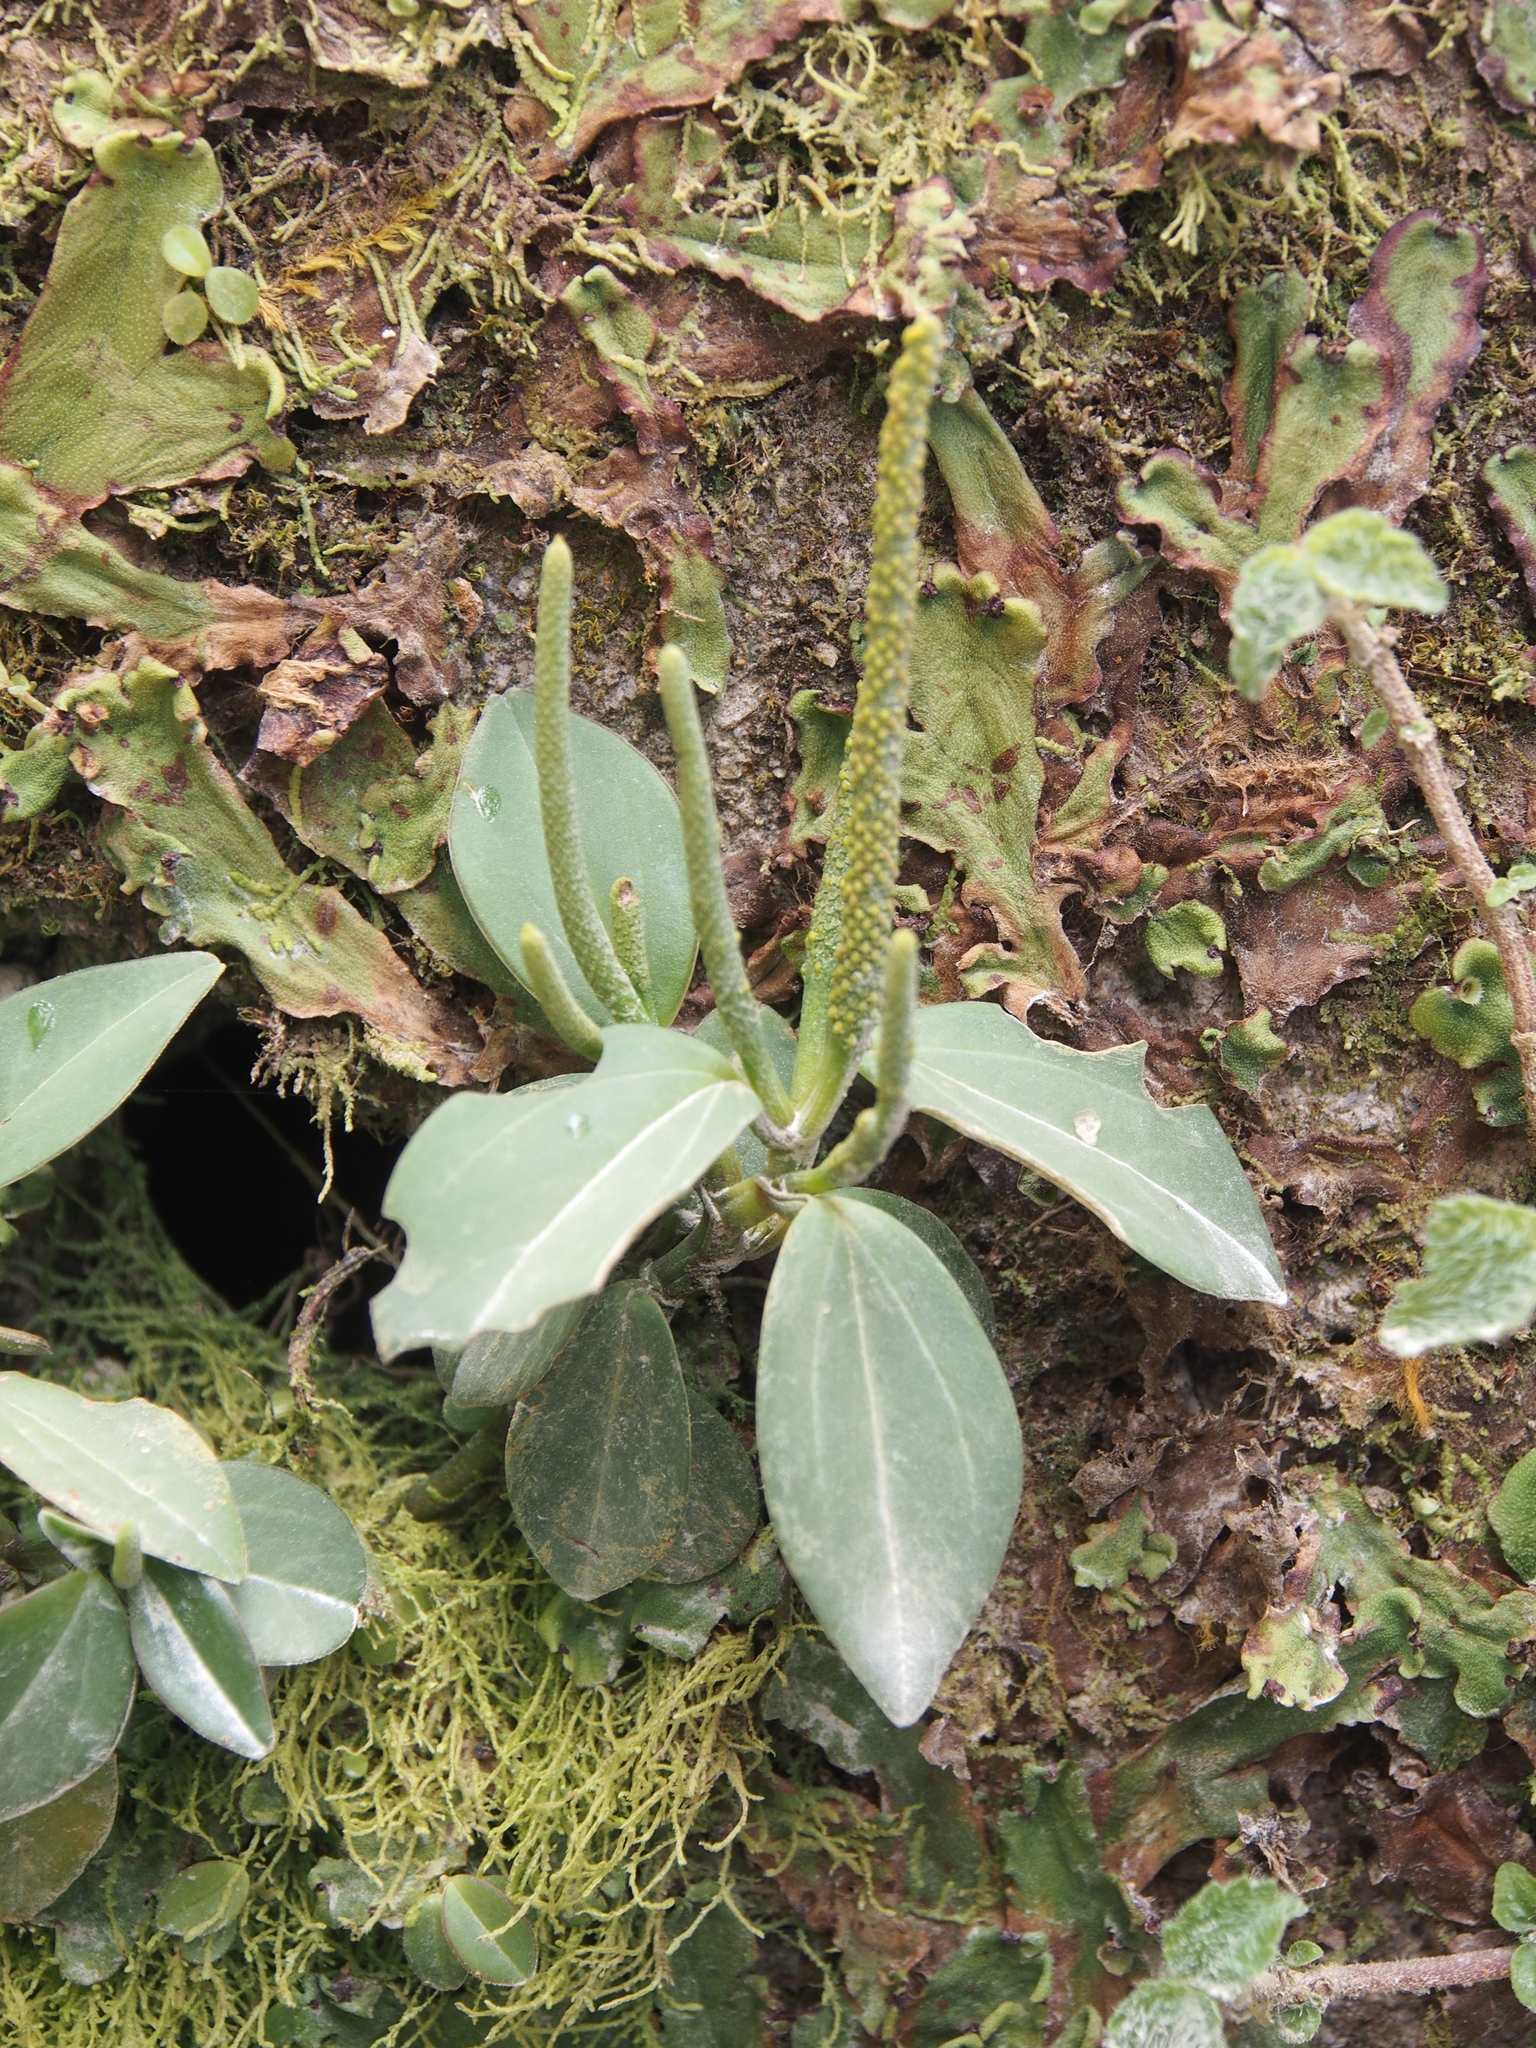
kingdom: Plantae
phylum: Tracheophyta
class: Magnoliopsida
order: Piperales
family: Piperaceae
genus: Peperomia
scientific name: Peperomia san-joseana
